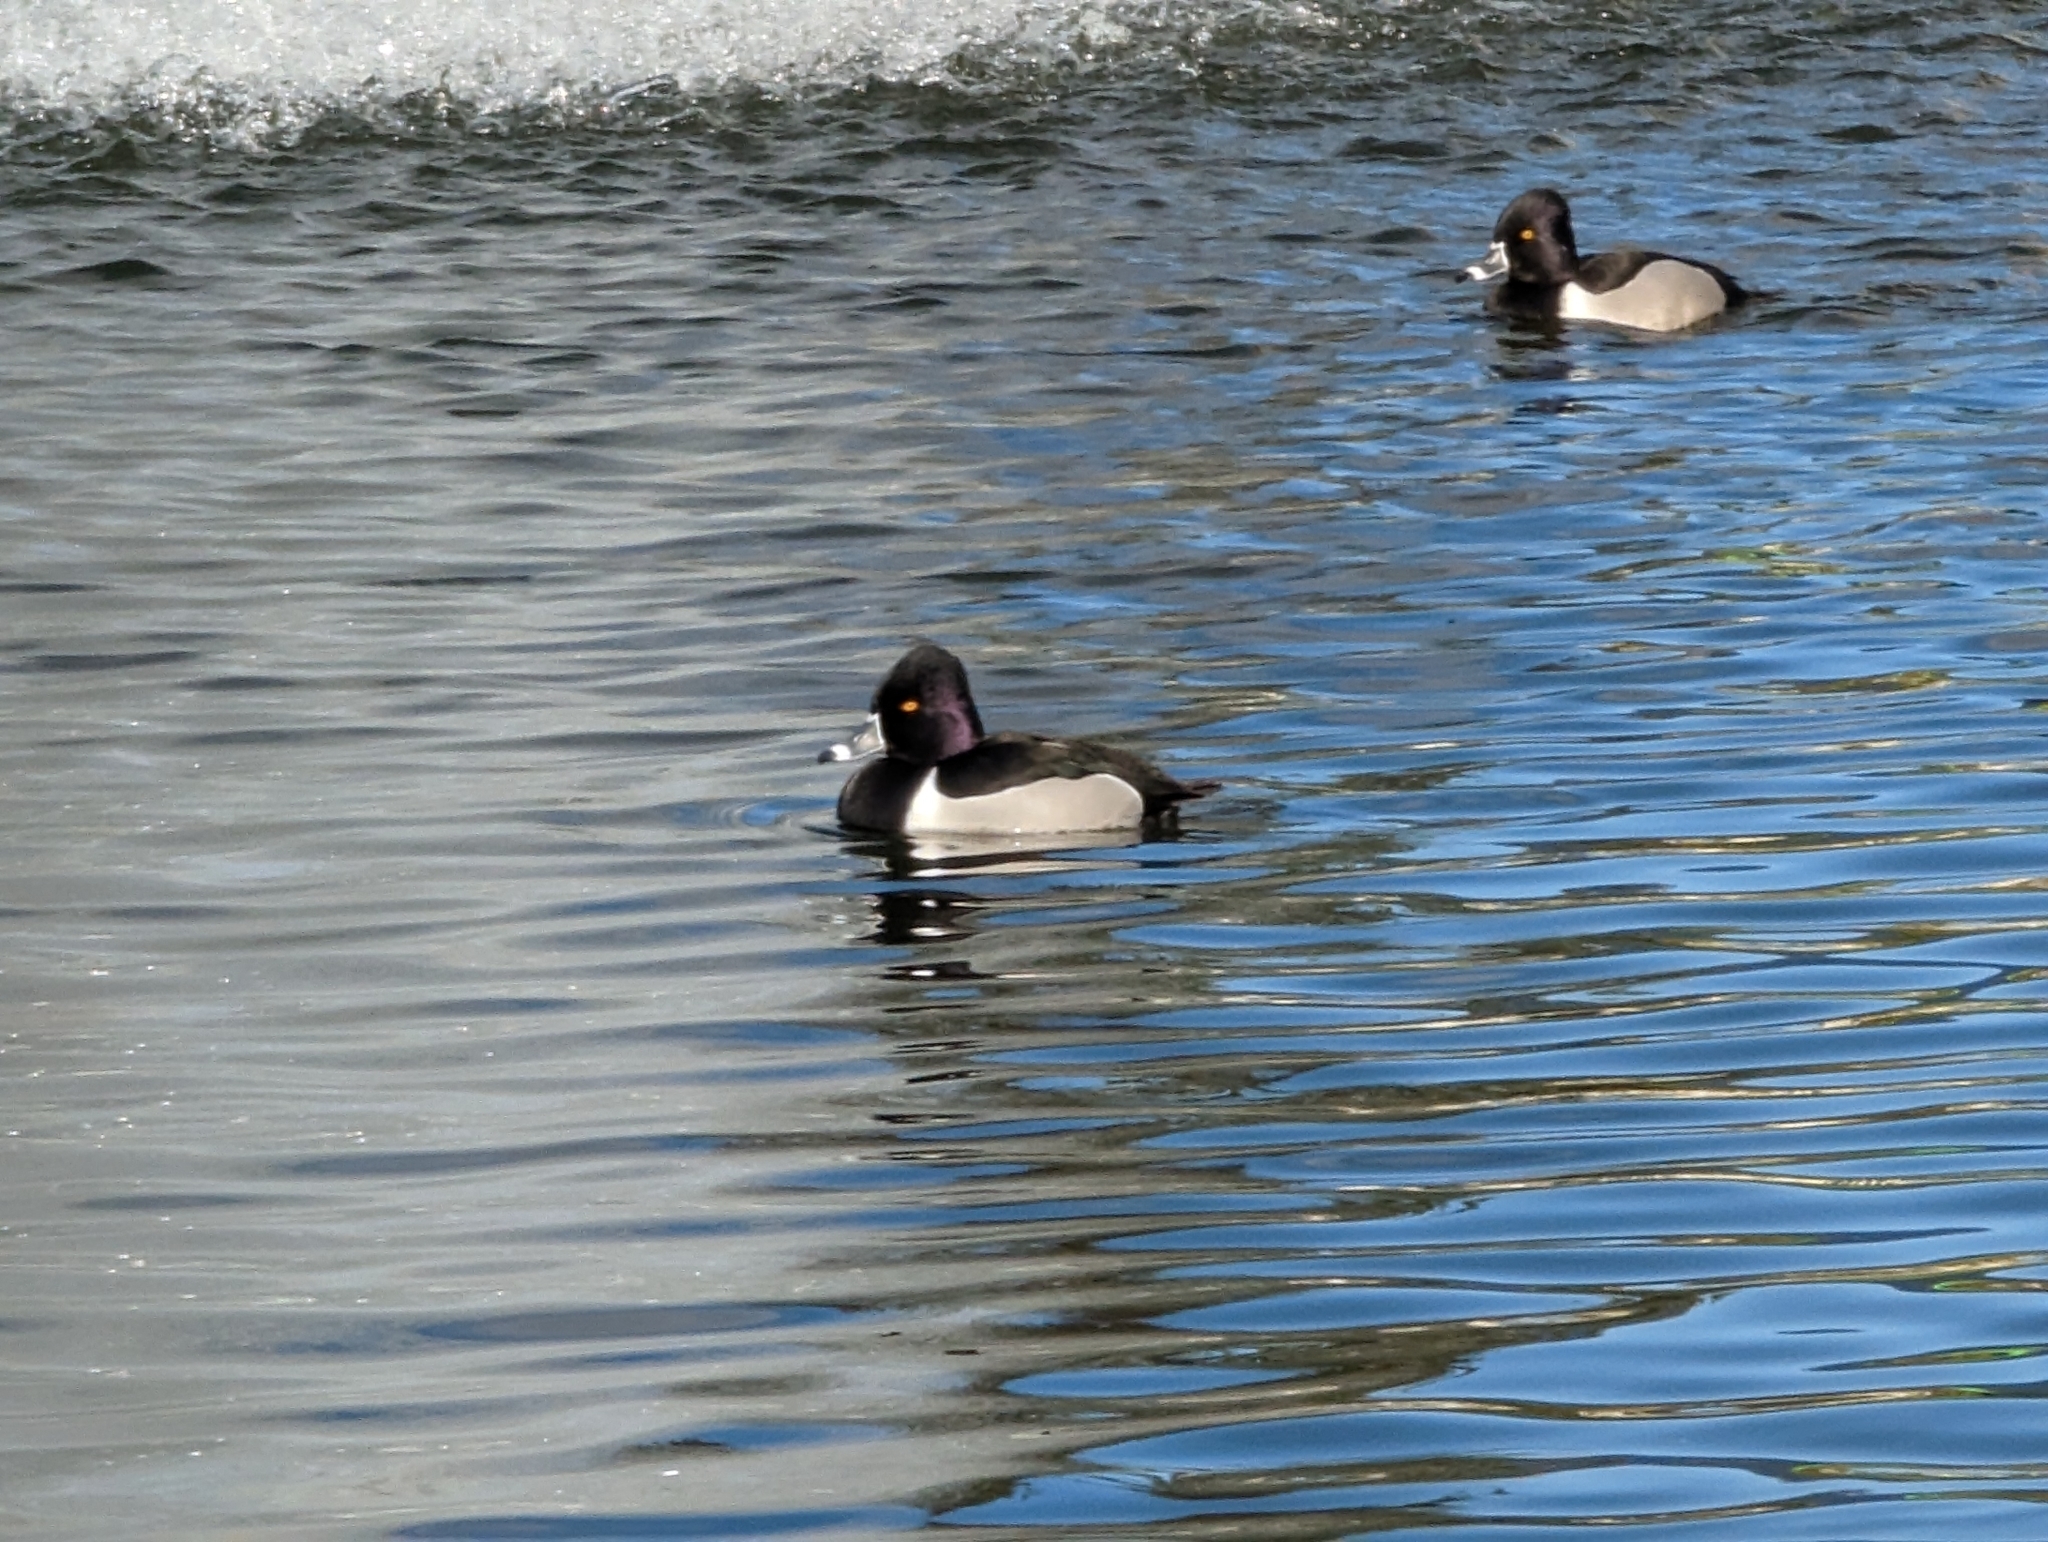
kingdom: Animalia
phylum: Chordata
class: Aves
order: Anseriformes
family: Anatidae
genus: Aythya
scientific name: Aythya collaris
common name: Ring-necked duck
